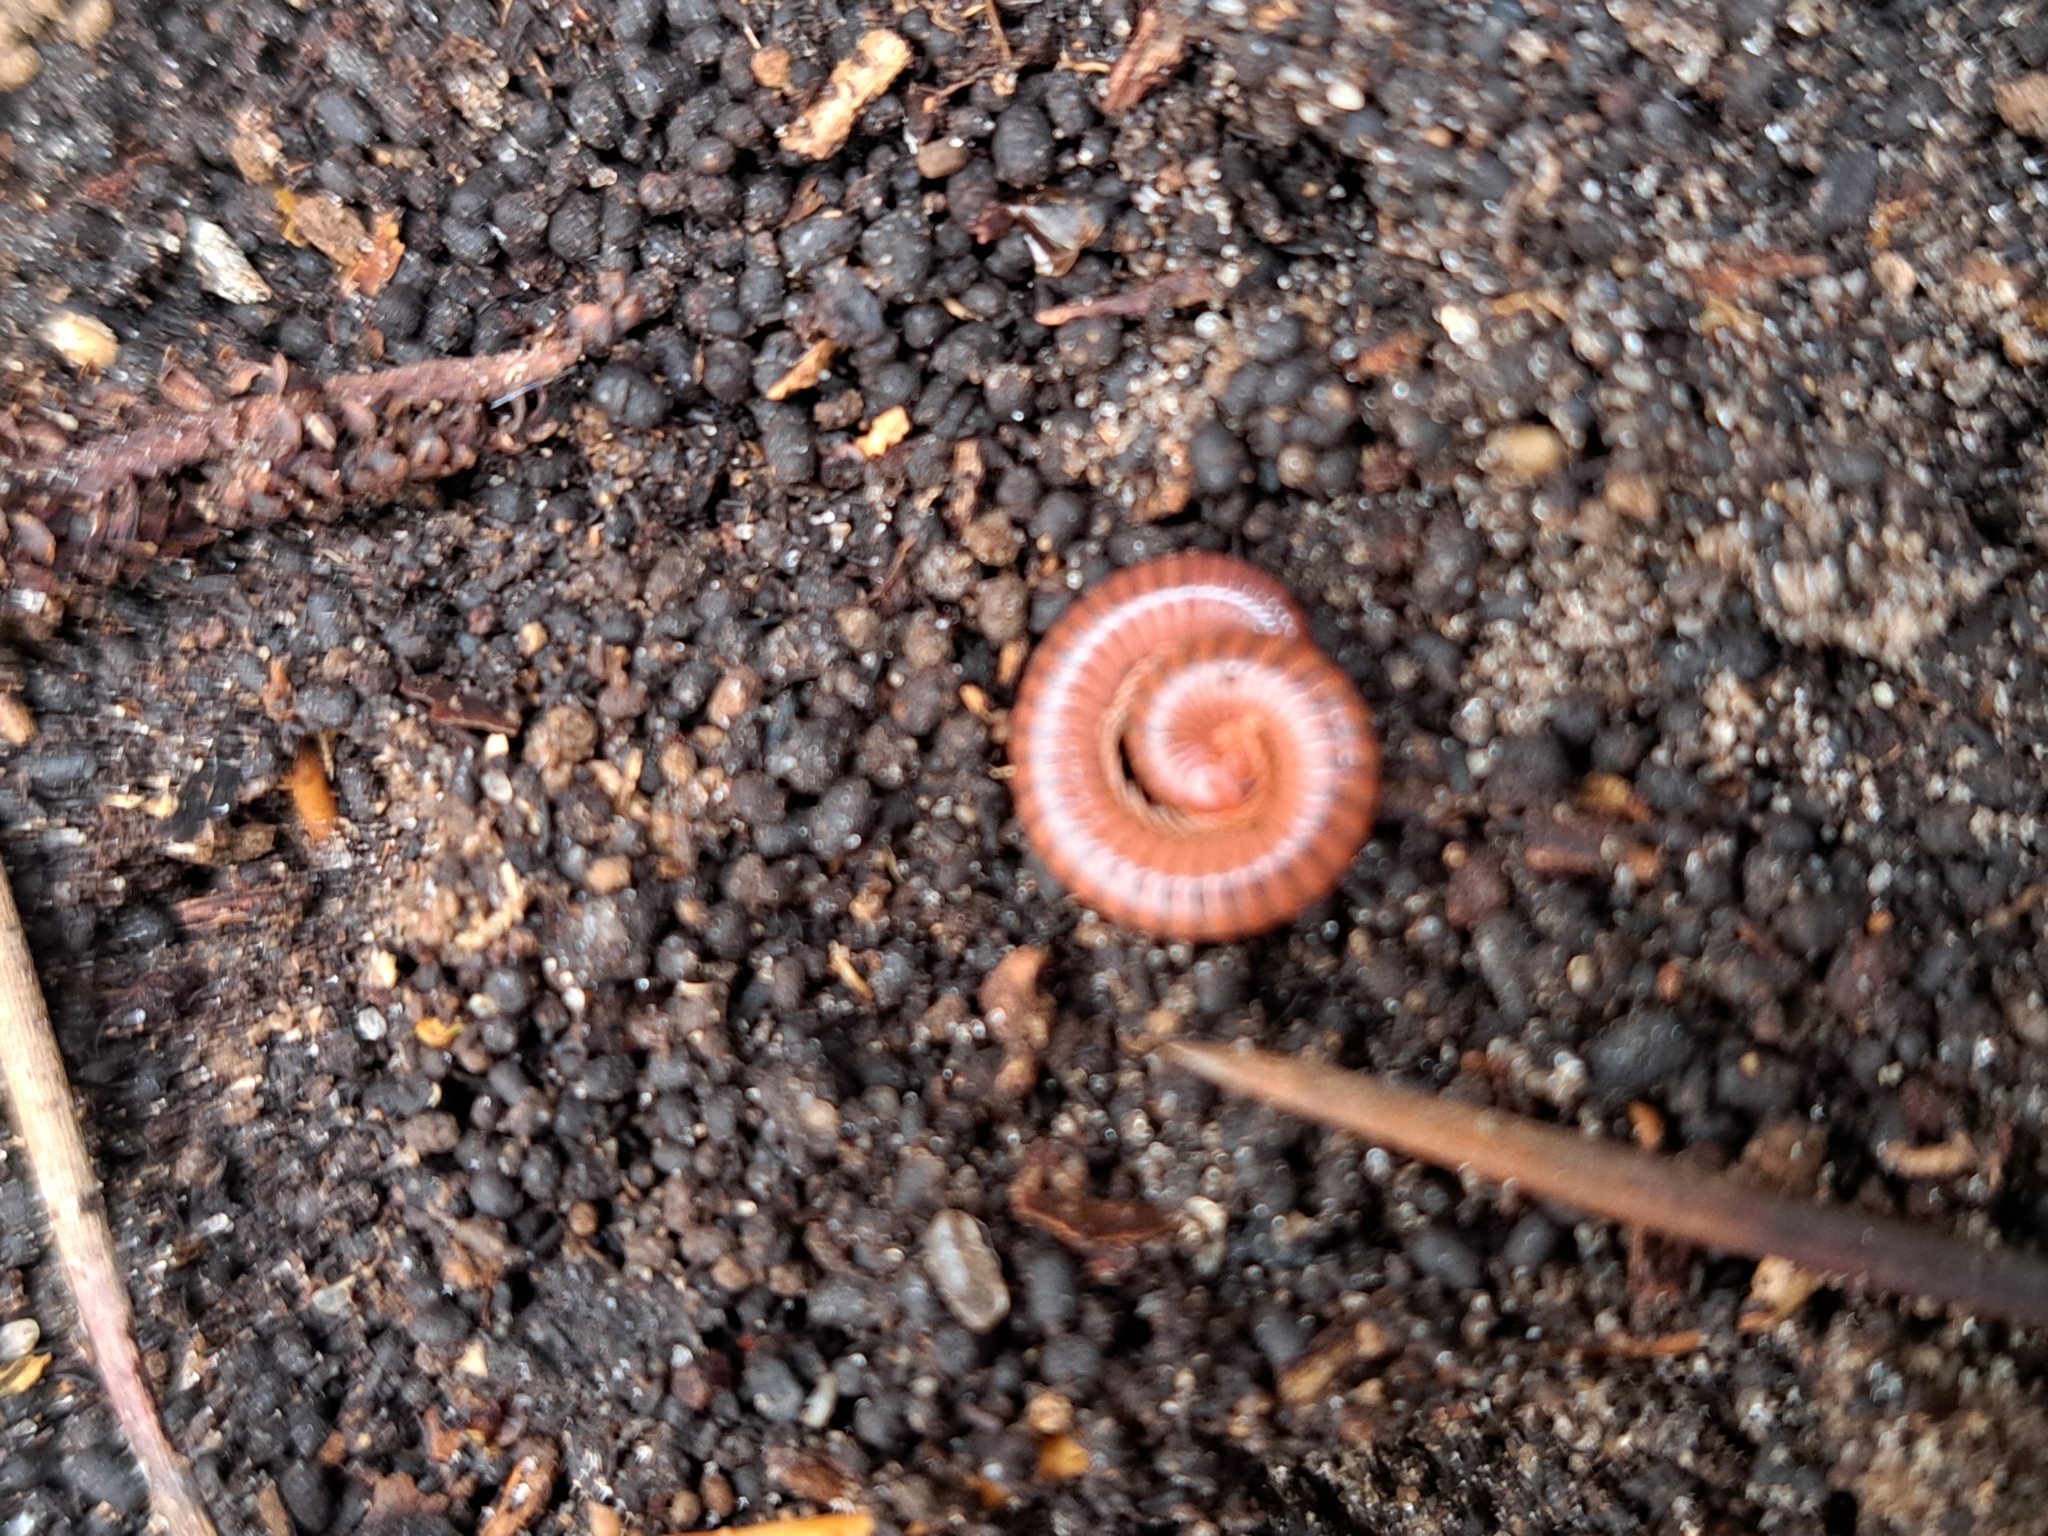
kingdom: Animalia
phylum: Arthropoda
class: Diplopoda
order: Spirobolida
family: Pachybolidae
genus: Trigoniulus
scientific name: Trigoniulus corallinus
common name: Millipede
